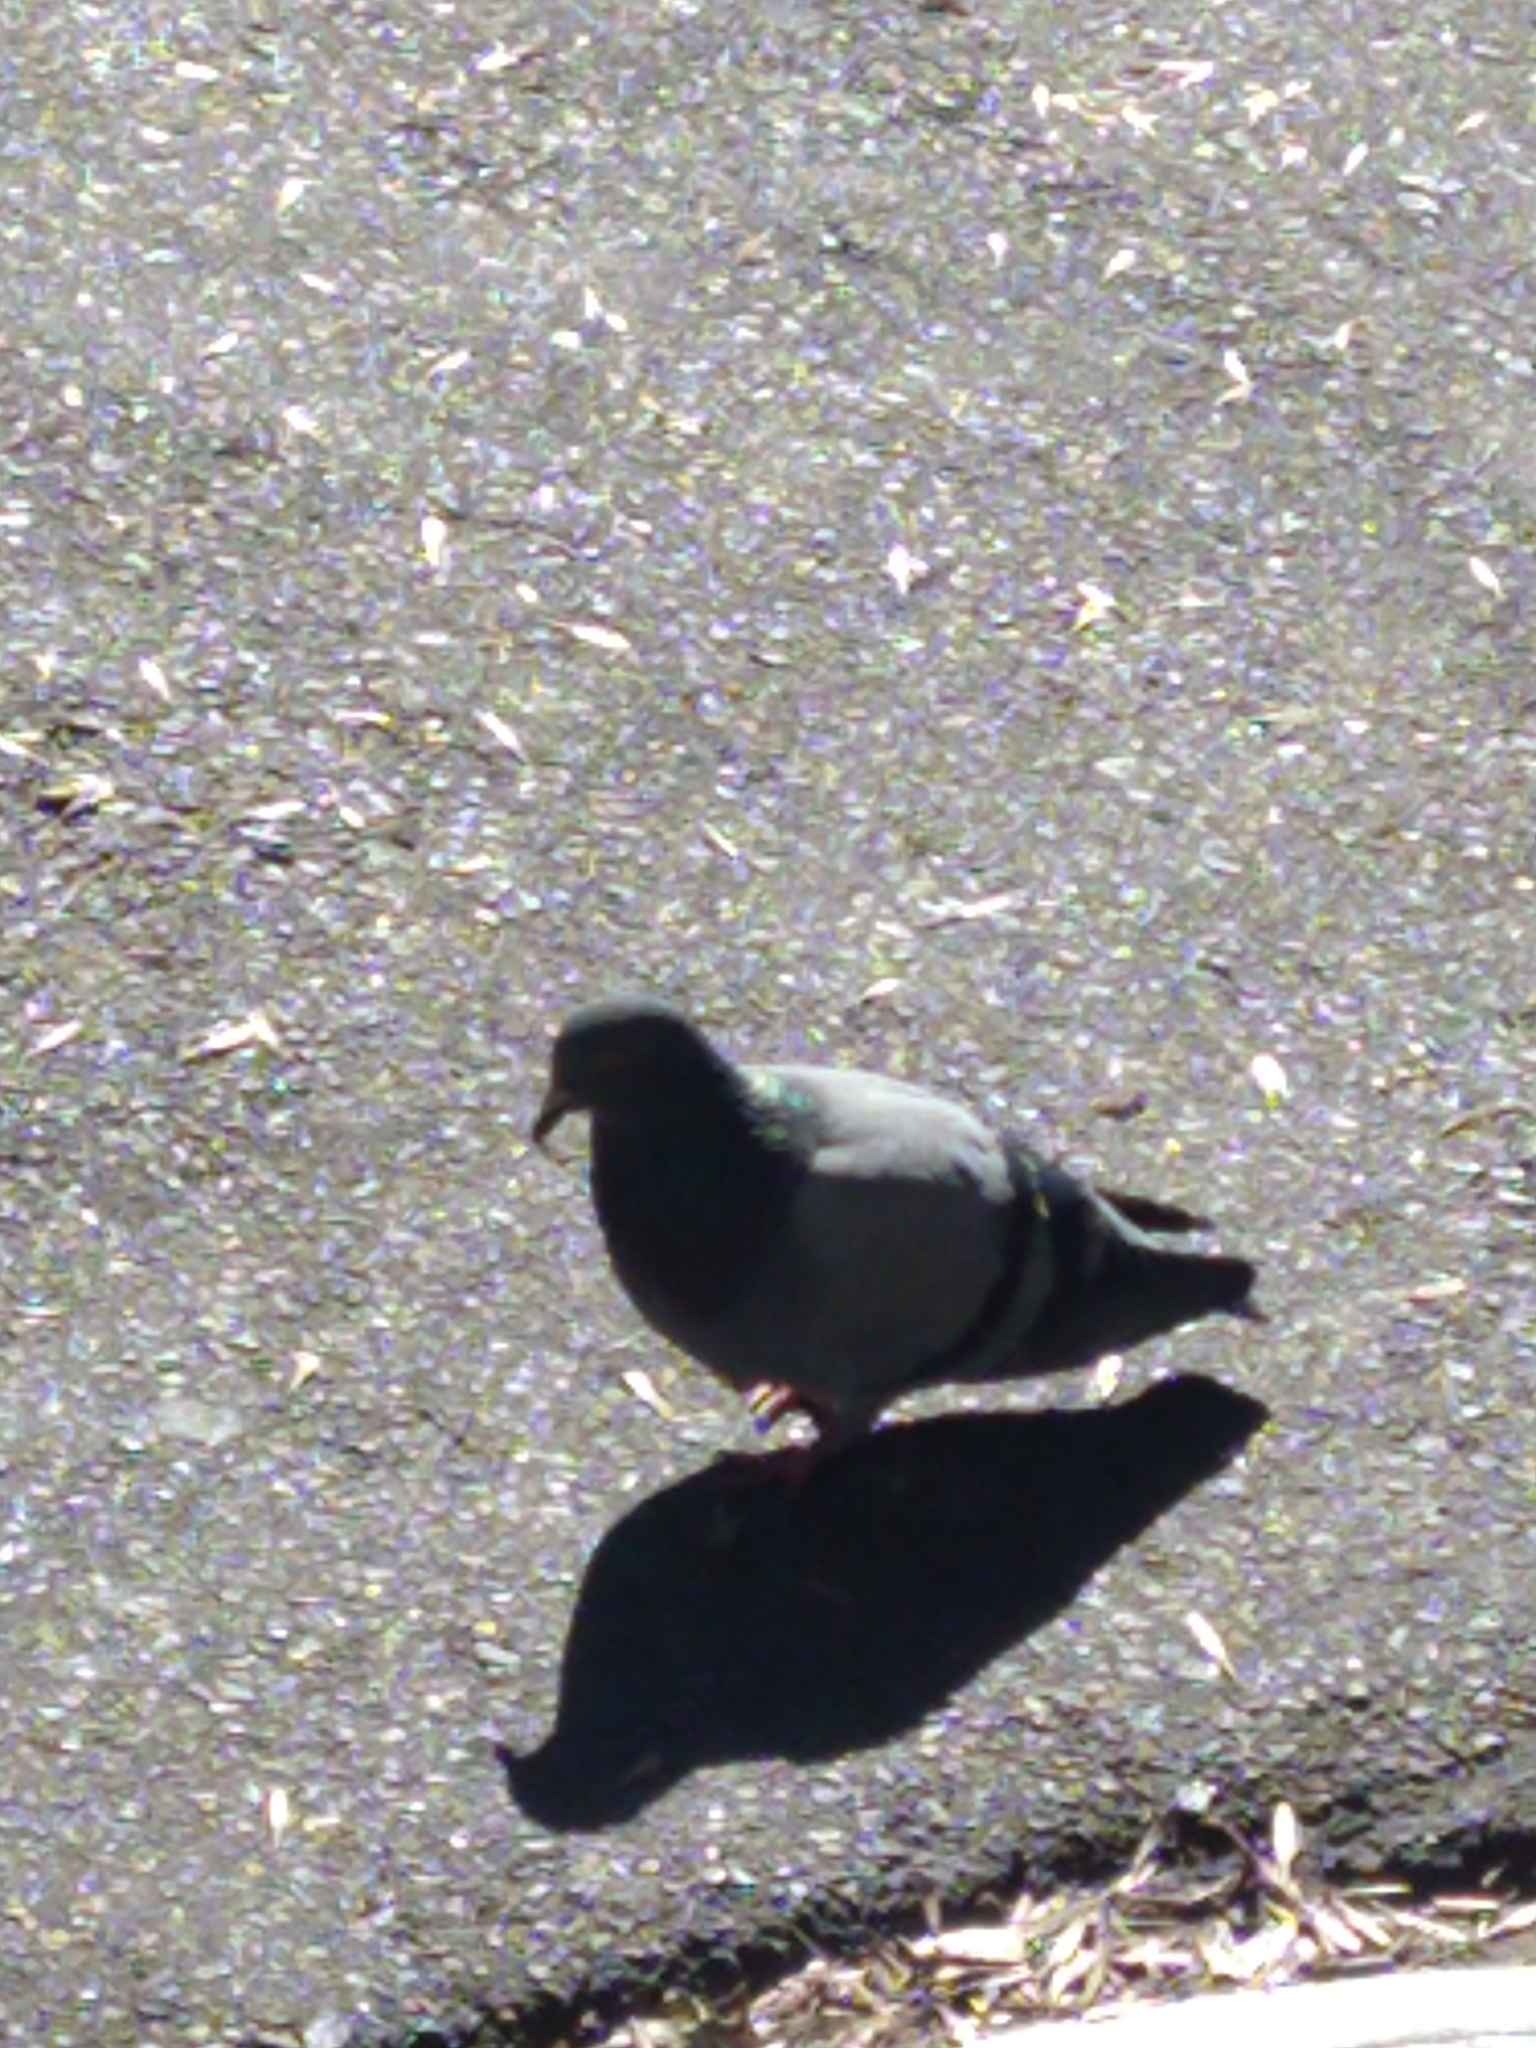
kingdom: Animalia
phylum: Chordata
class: Aves
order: Columbiformes
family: Columbidae
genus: Columba
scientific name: Columba livia
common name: Rock pigeon
